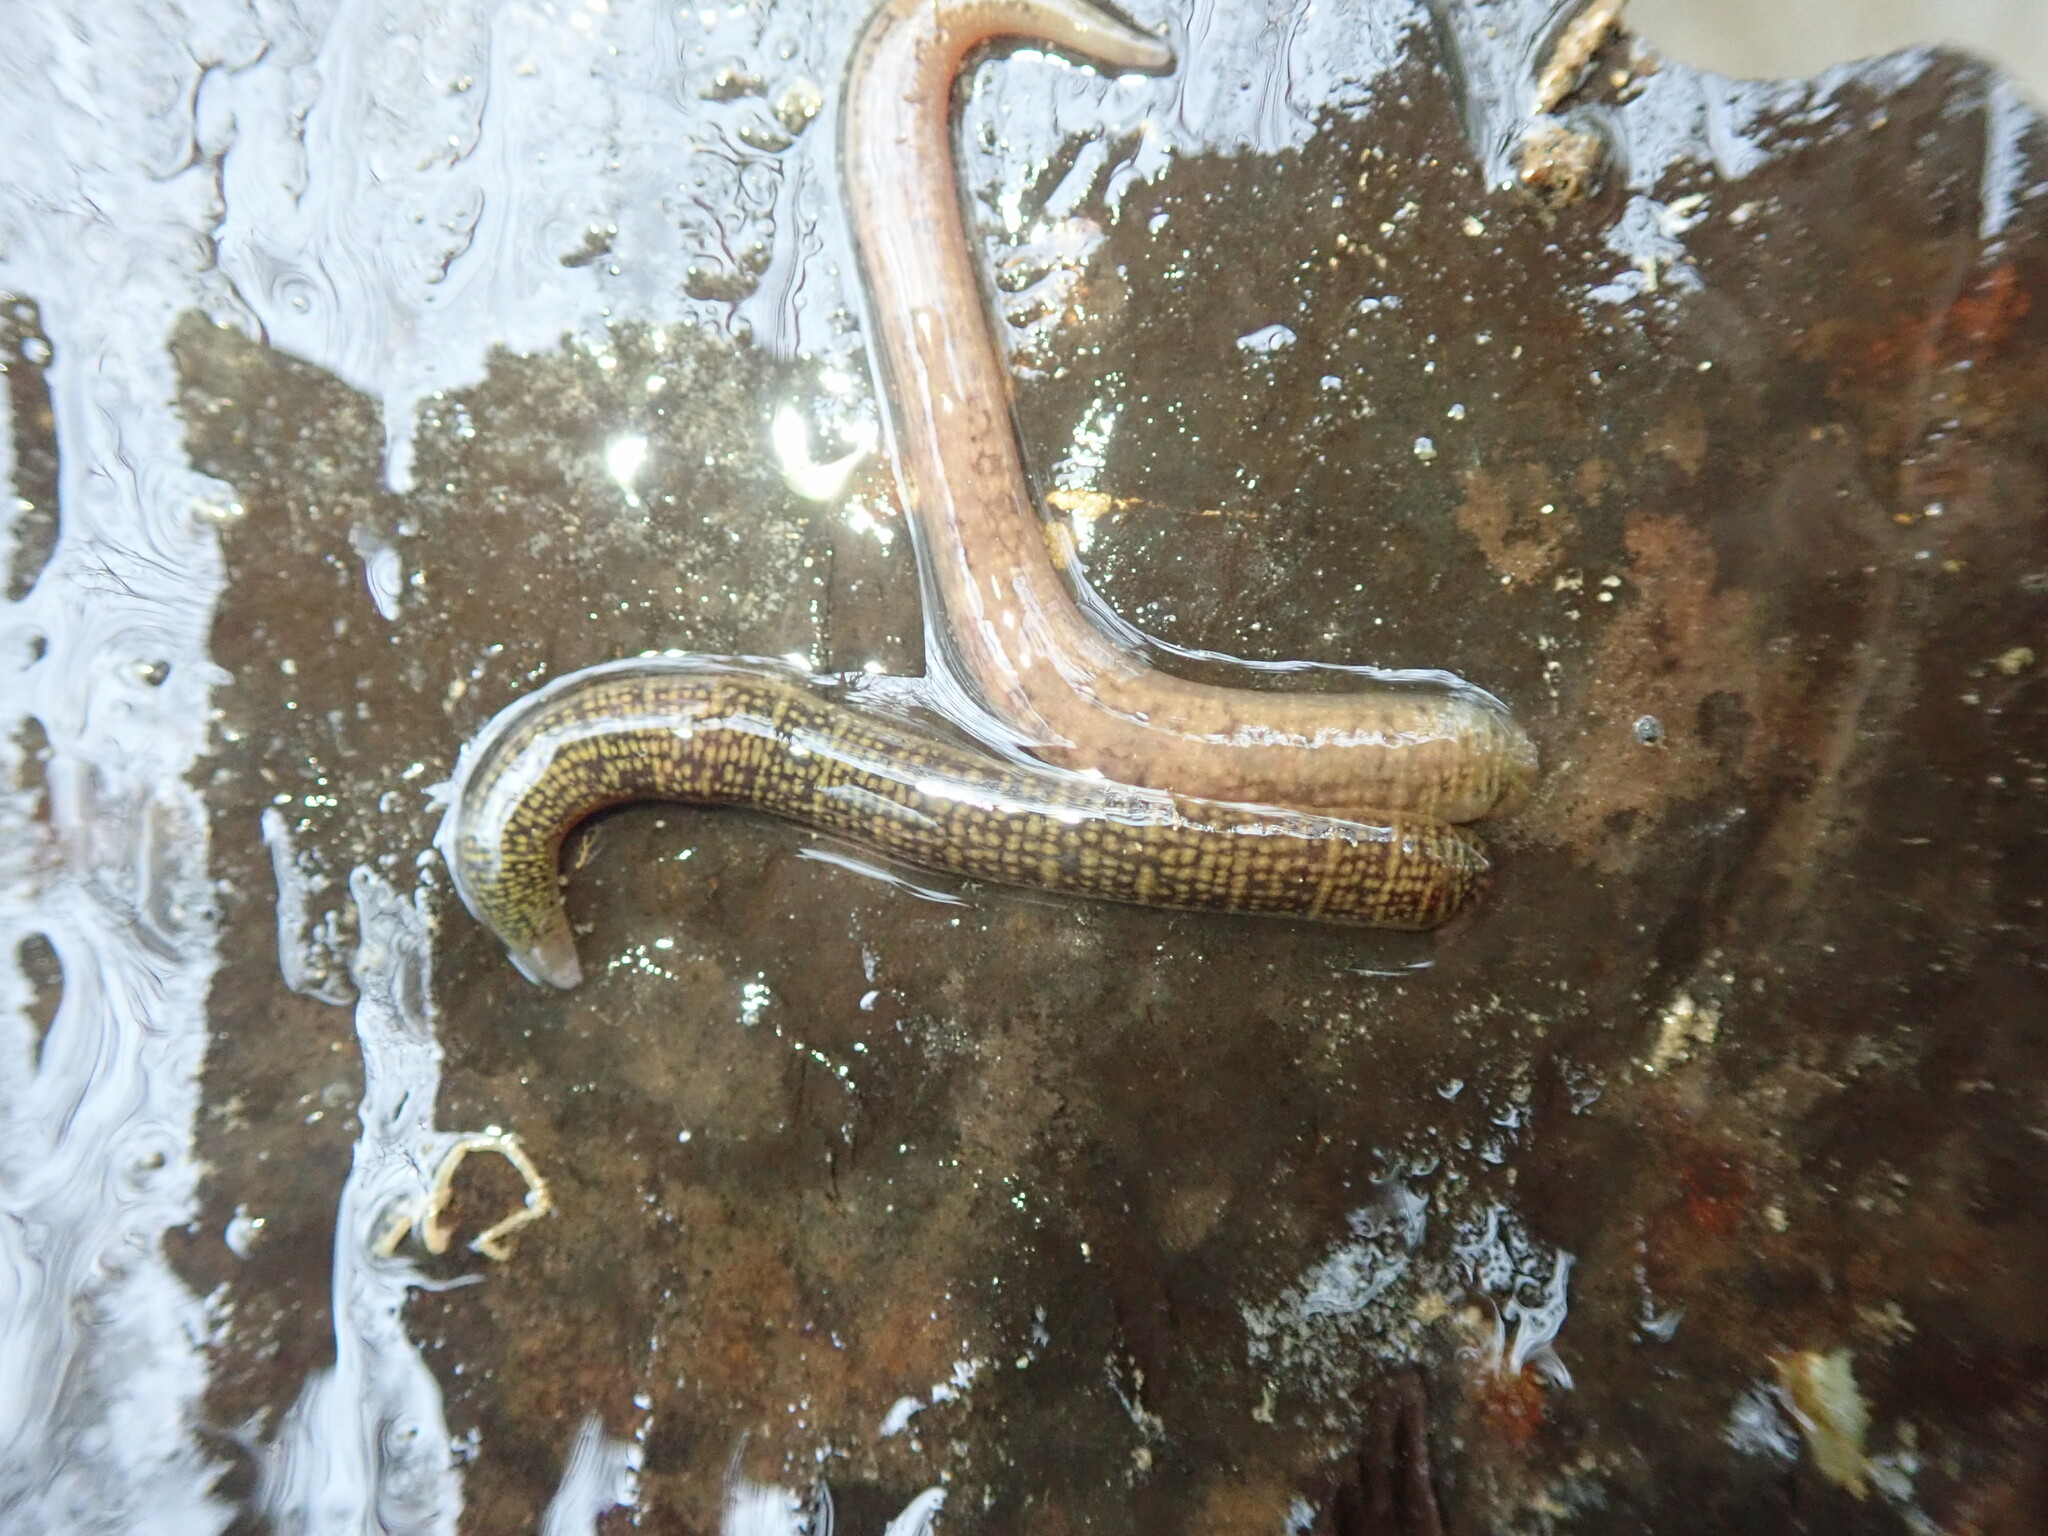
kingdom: Animalia
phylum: Annelida
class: Clitellata
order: Arhynchobdellida
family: Erpobdellidae
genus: Erpobdella
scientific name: Erpobdella octoculata
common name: Leeches
